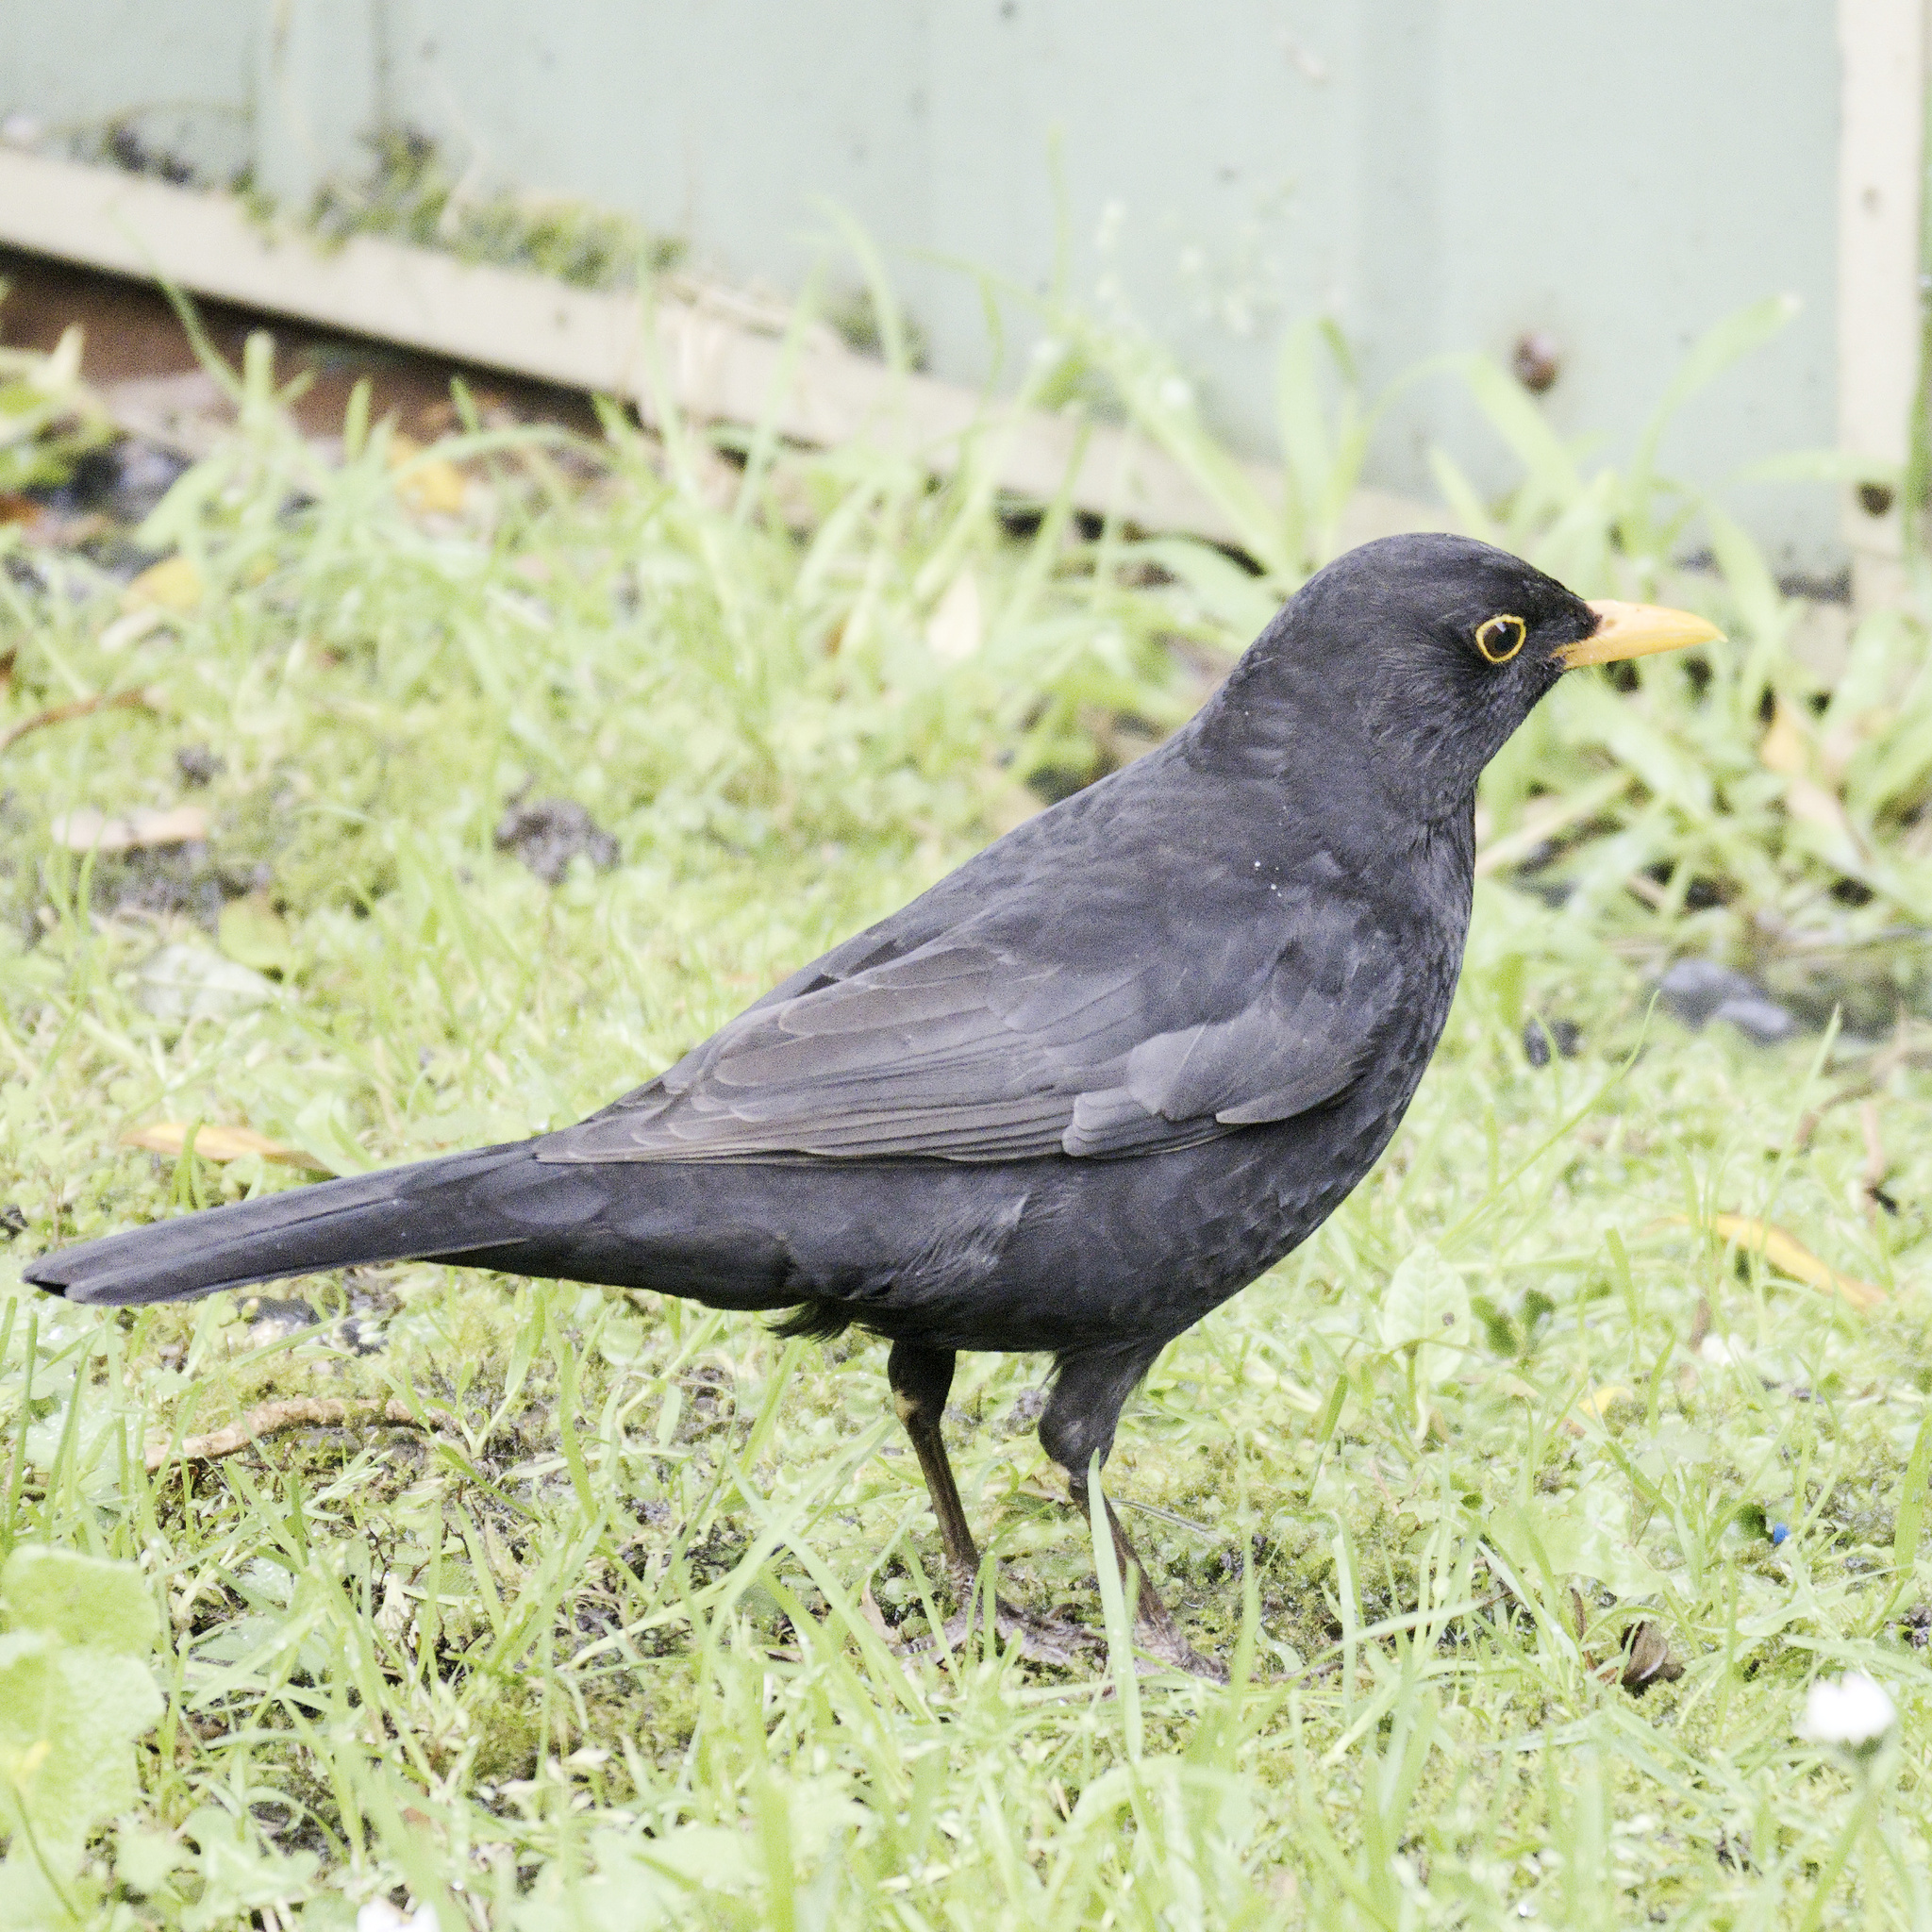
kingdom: Animalia
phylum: Chordata
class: Aves
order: Passeriformes
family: Turdidae
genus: Turdus
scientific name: Turdus merula
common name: Common blackbird
